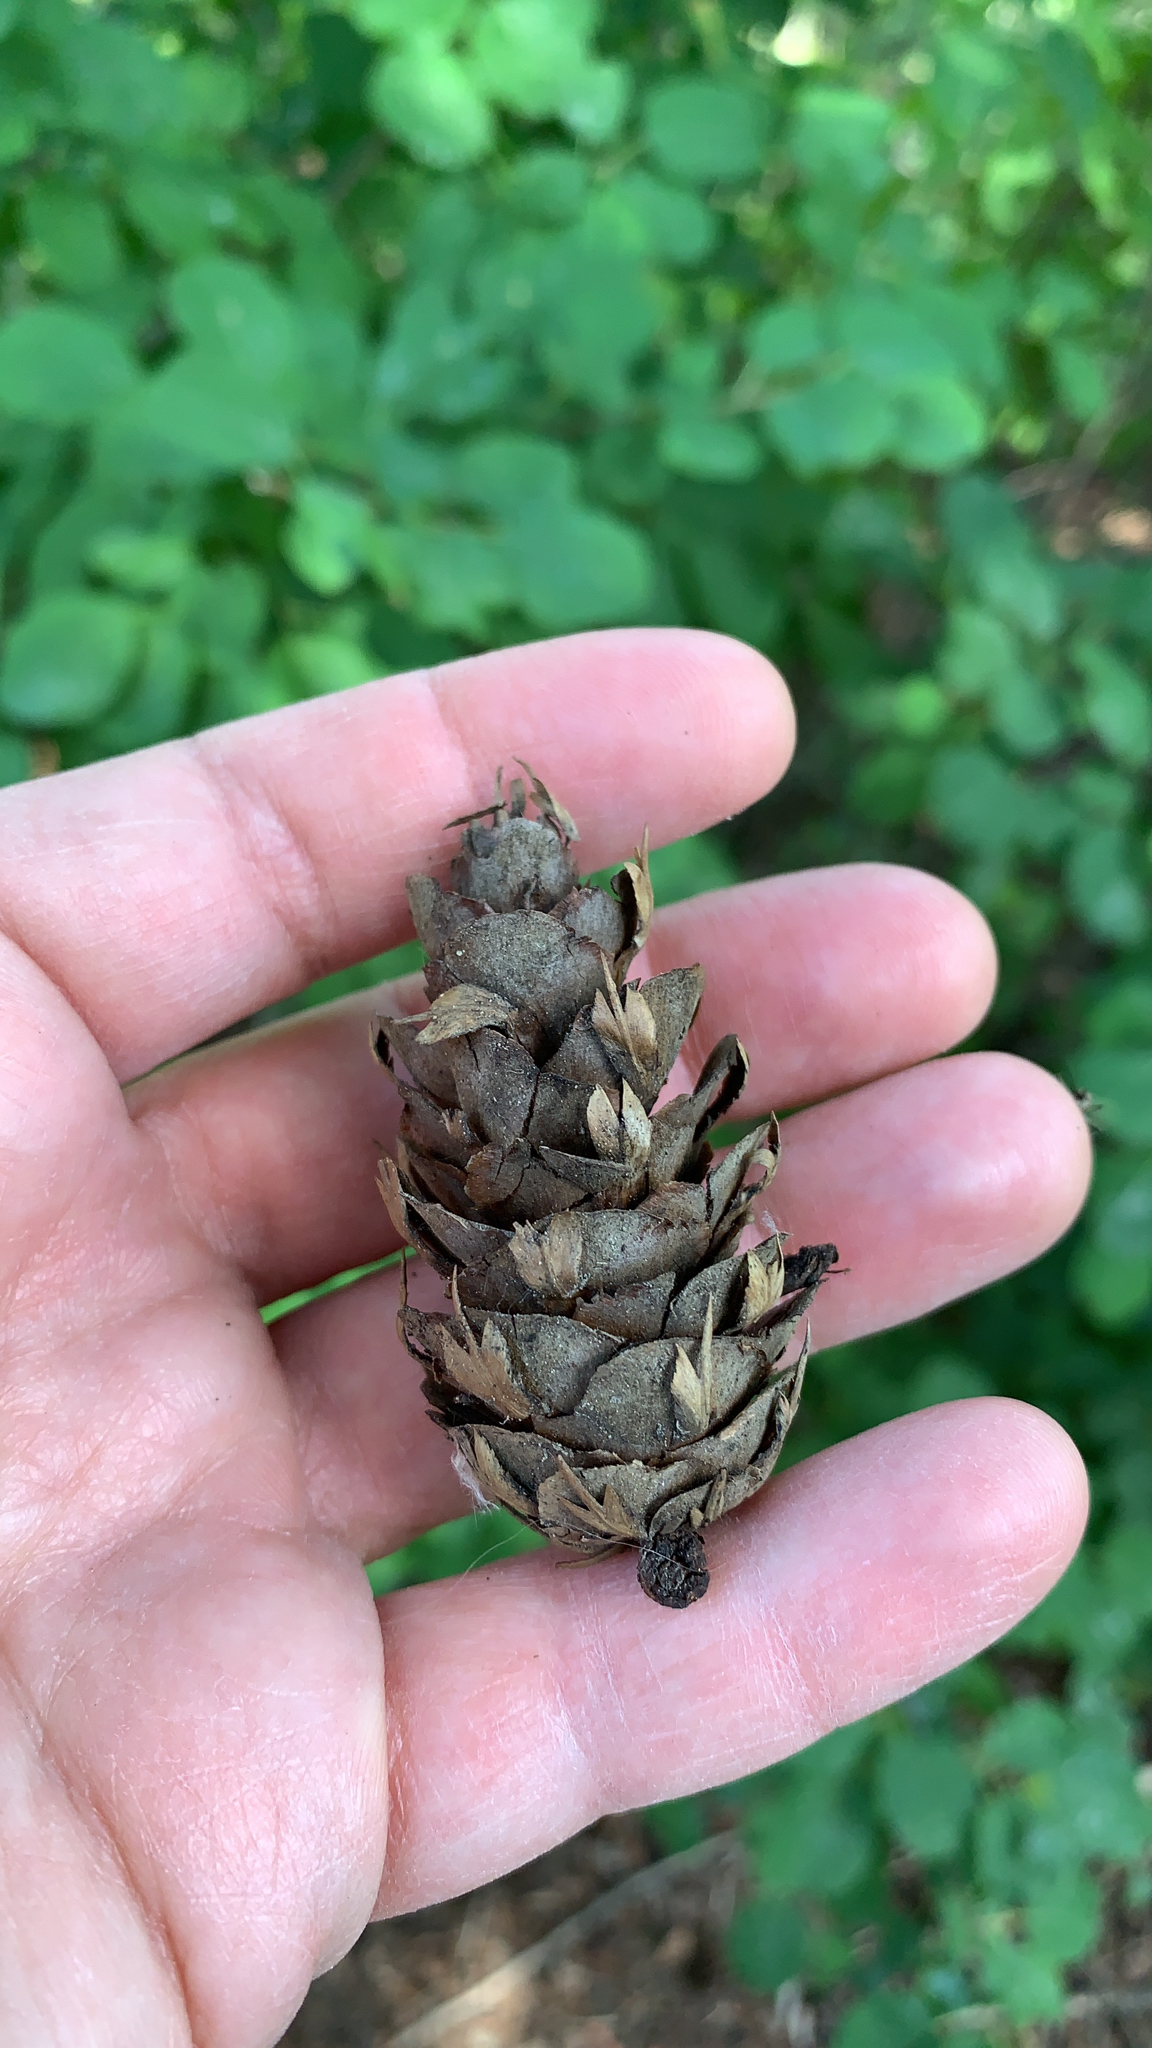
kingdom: Plantae
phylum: Tracheophyta
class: Pinopsida
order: Pinales
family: Pinaceae
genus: Pseudotsuga
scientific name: Pseudotsuga menziesii
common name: Douglas fir
